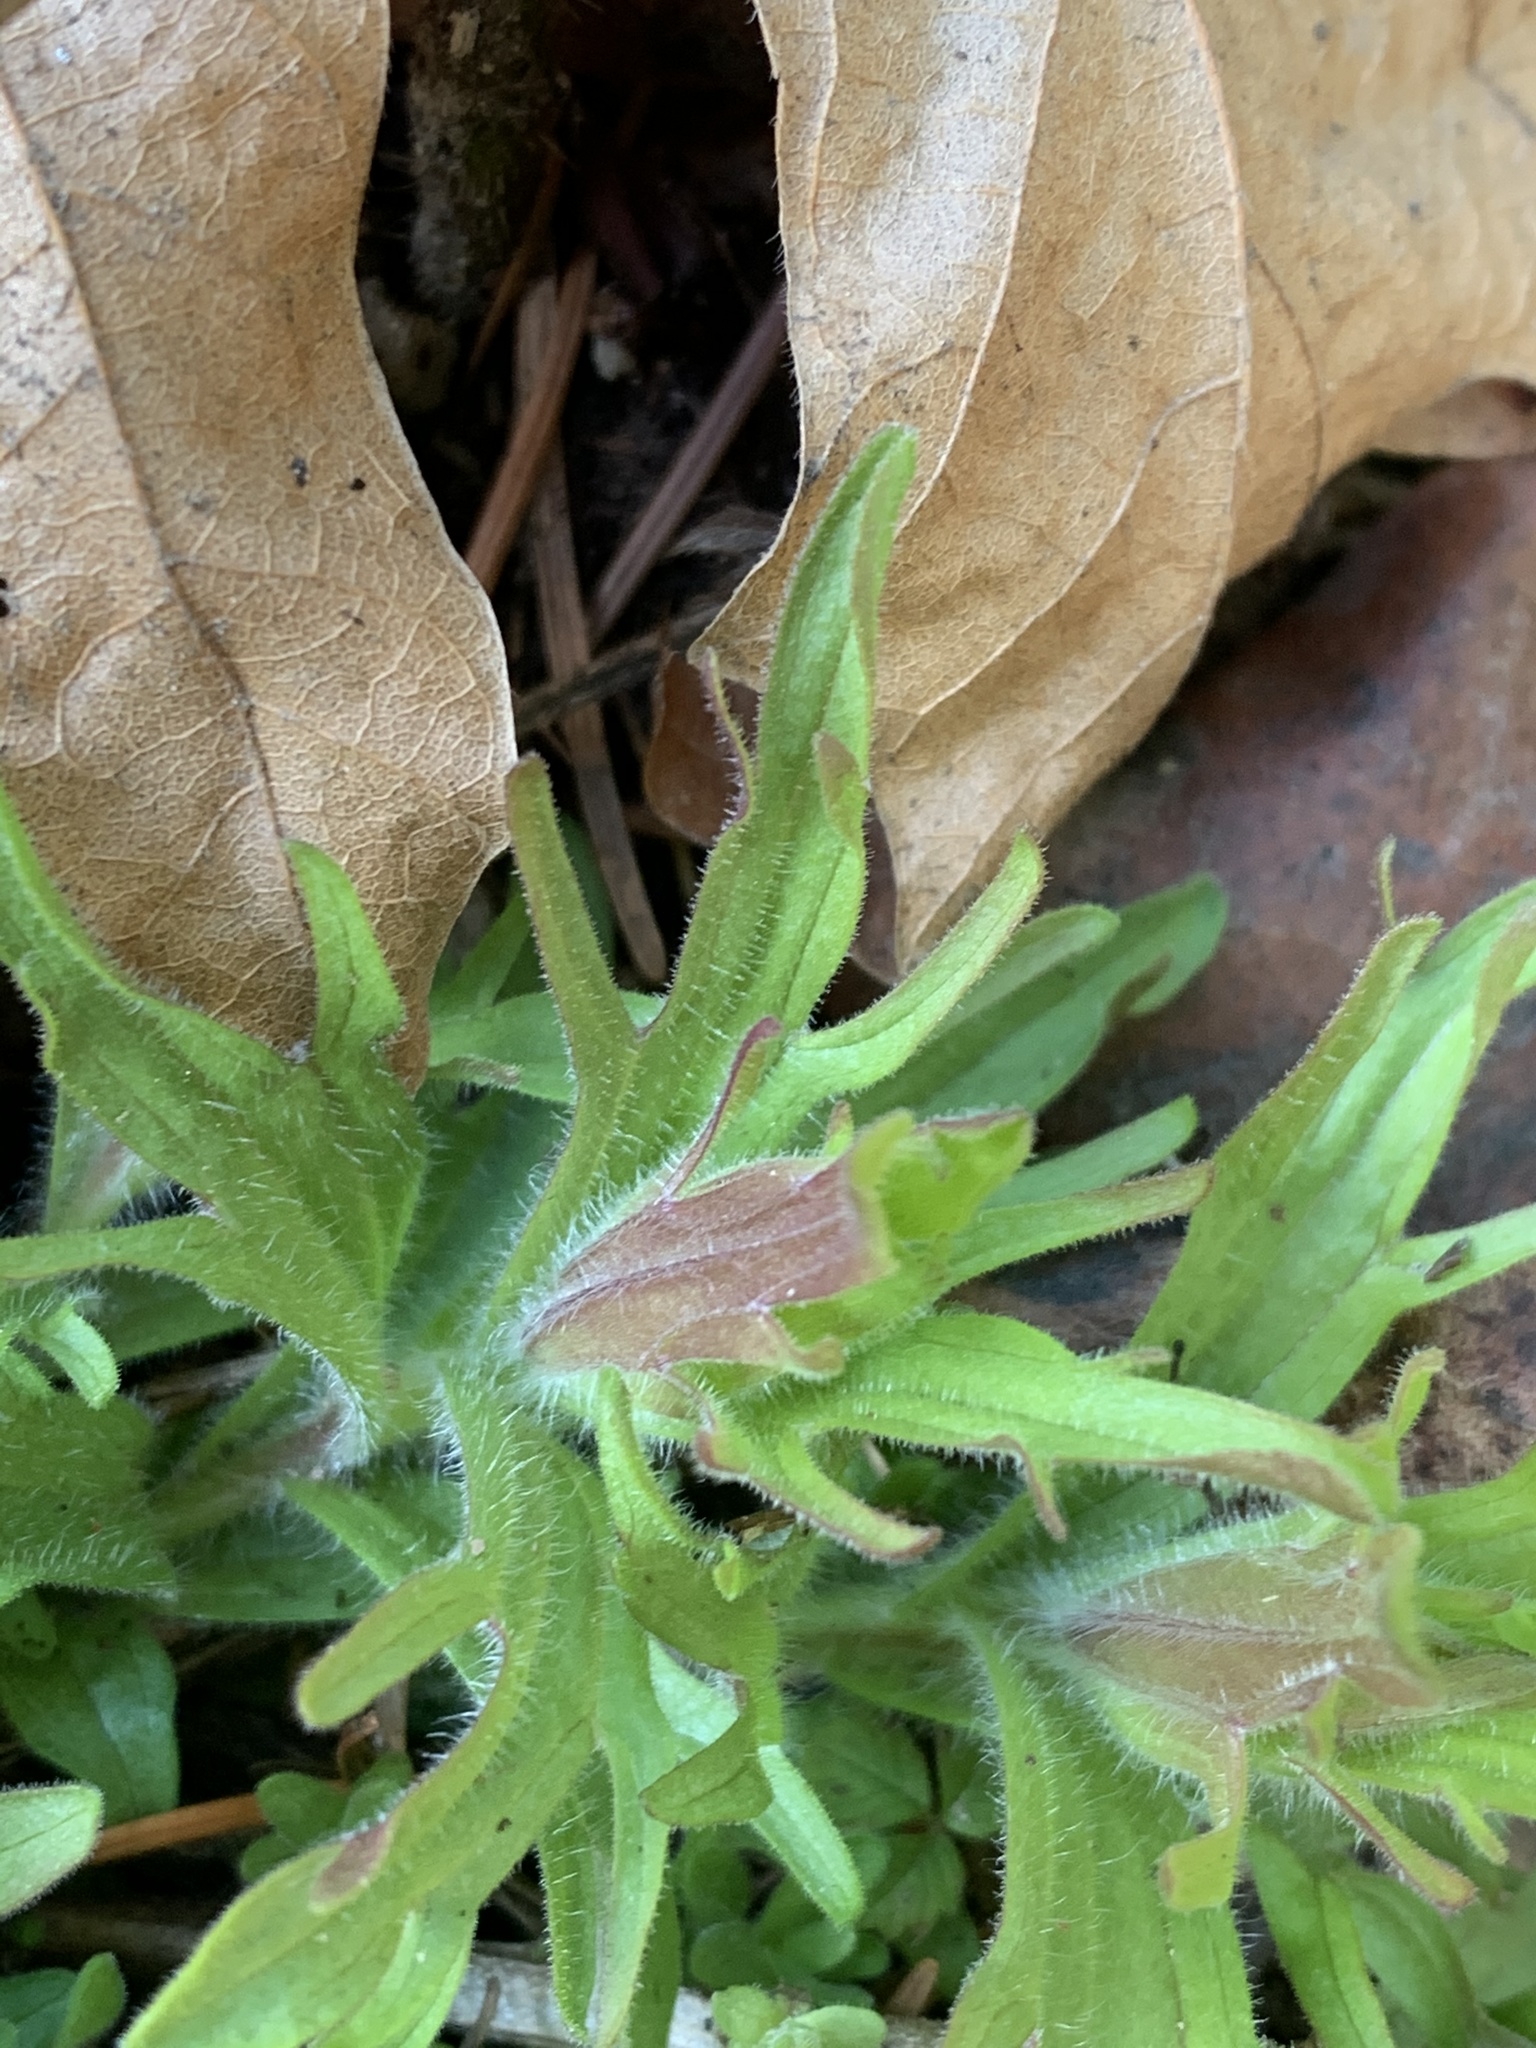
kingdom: Plantae
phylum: Tracheophyta
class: Magnoliopsida
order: Lamiales
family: Orobanchaceae
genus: Castilleja
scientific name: Castilleja hispida
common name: Bristly paintbrush
